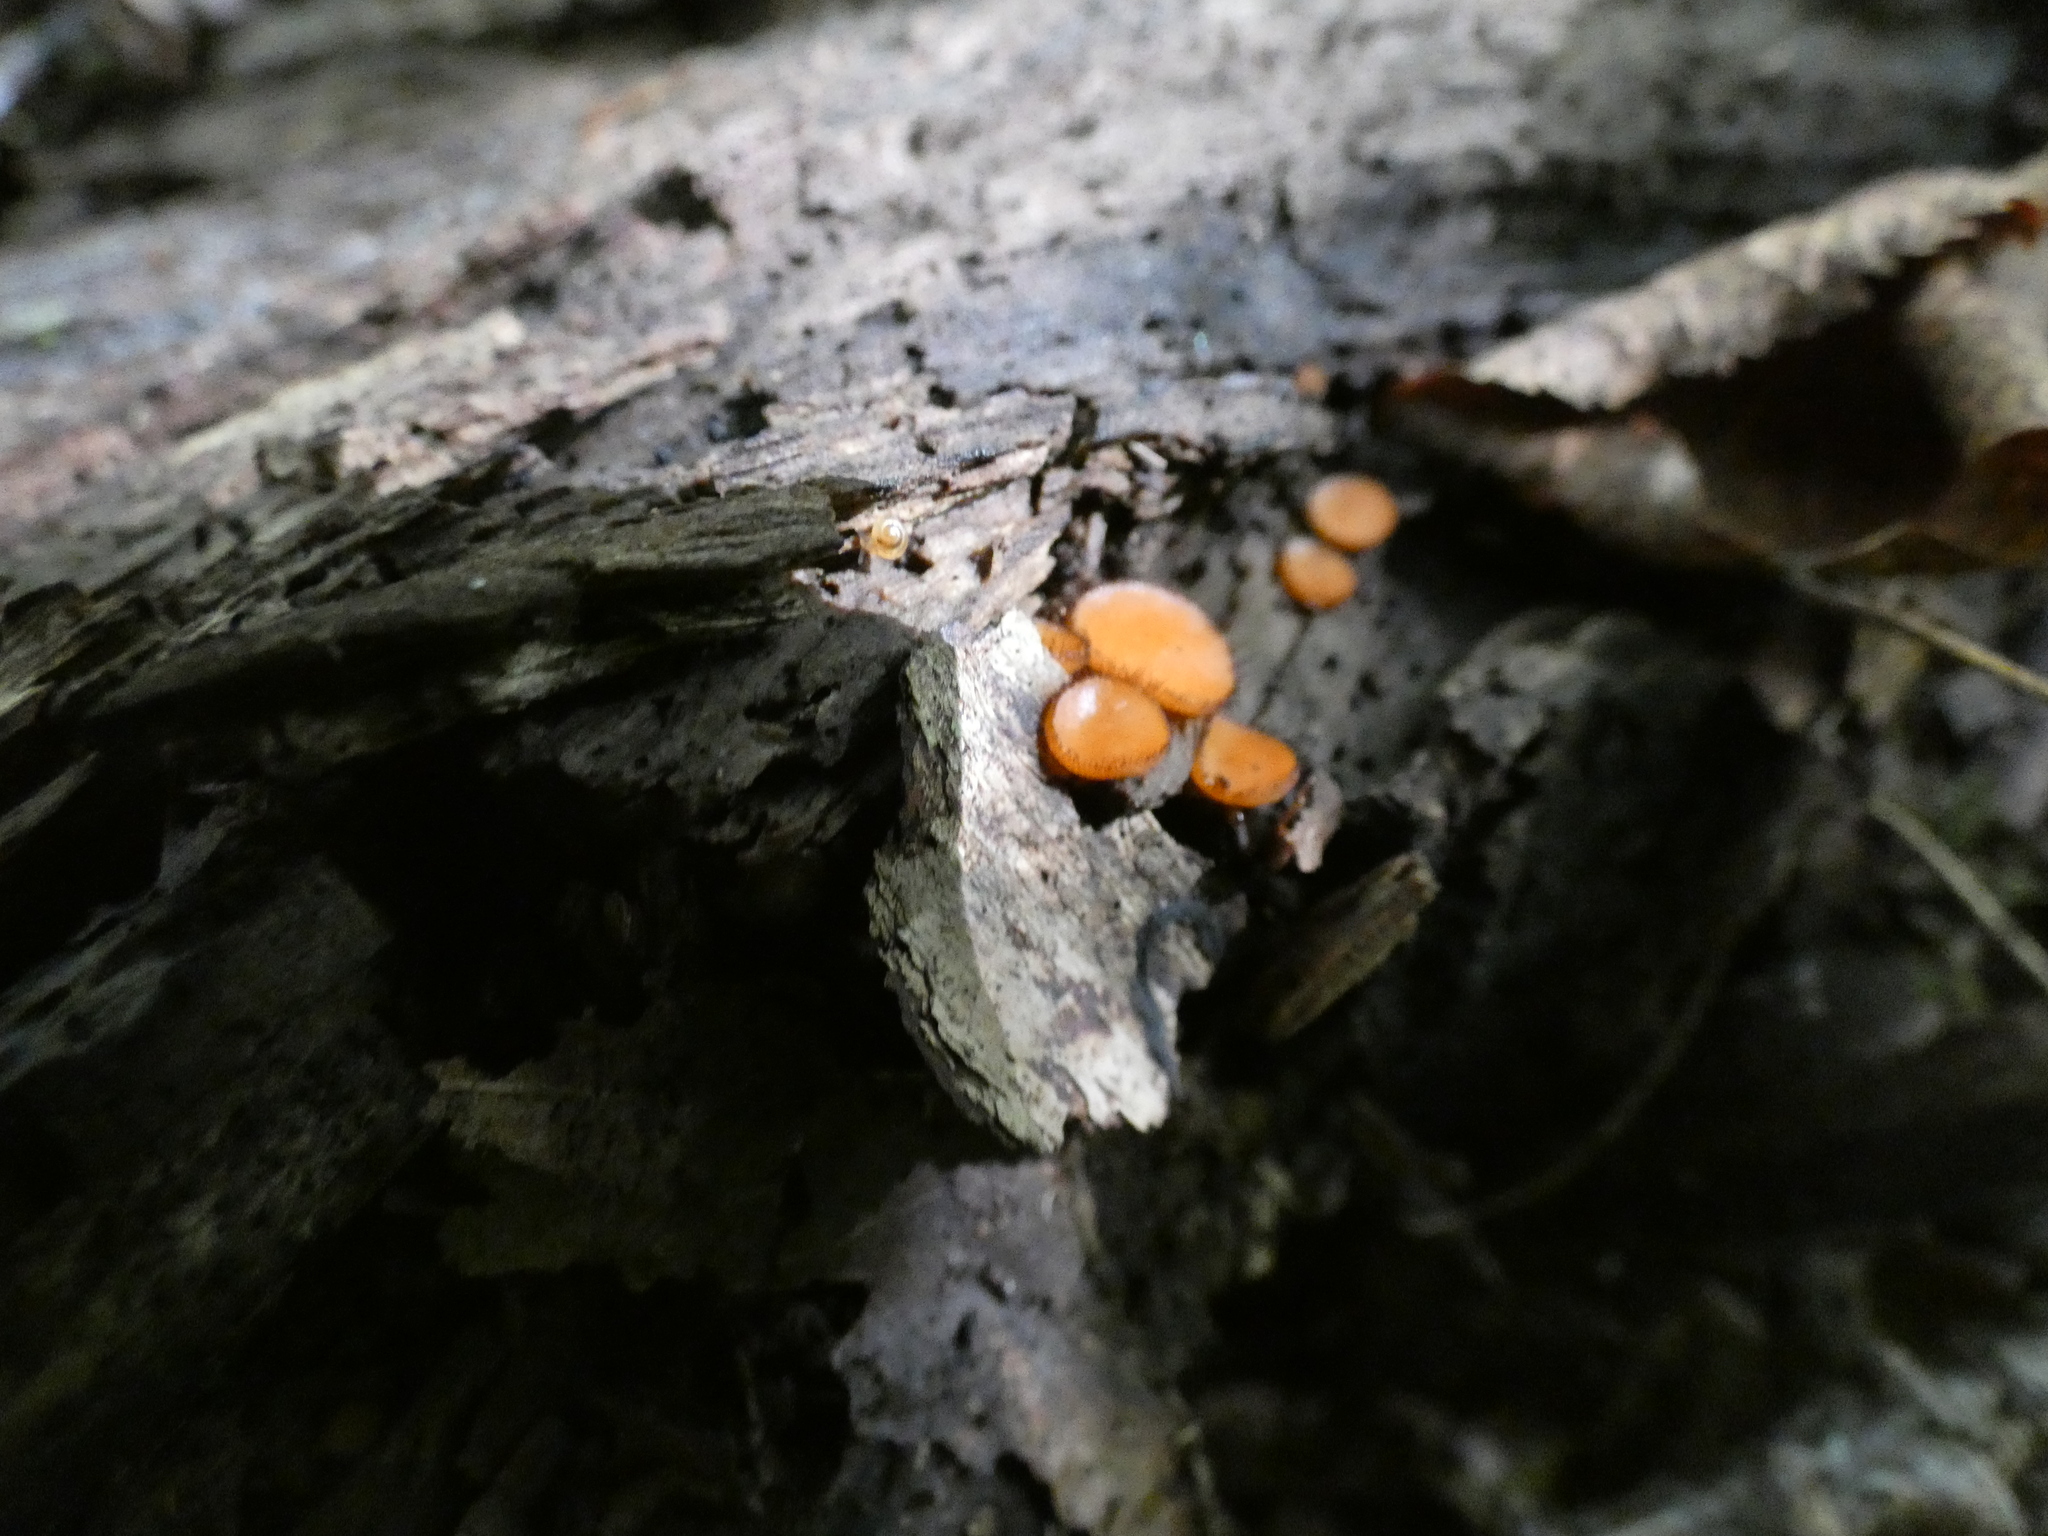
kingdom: Fungi
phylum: Ascomycota
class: Pezizomycetes
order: Pezizales
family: Pyronemataceae
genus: Scutellinia
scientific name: Scutellinia
